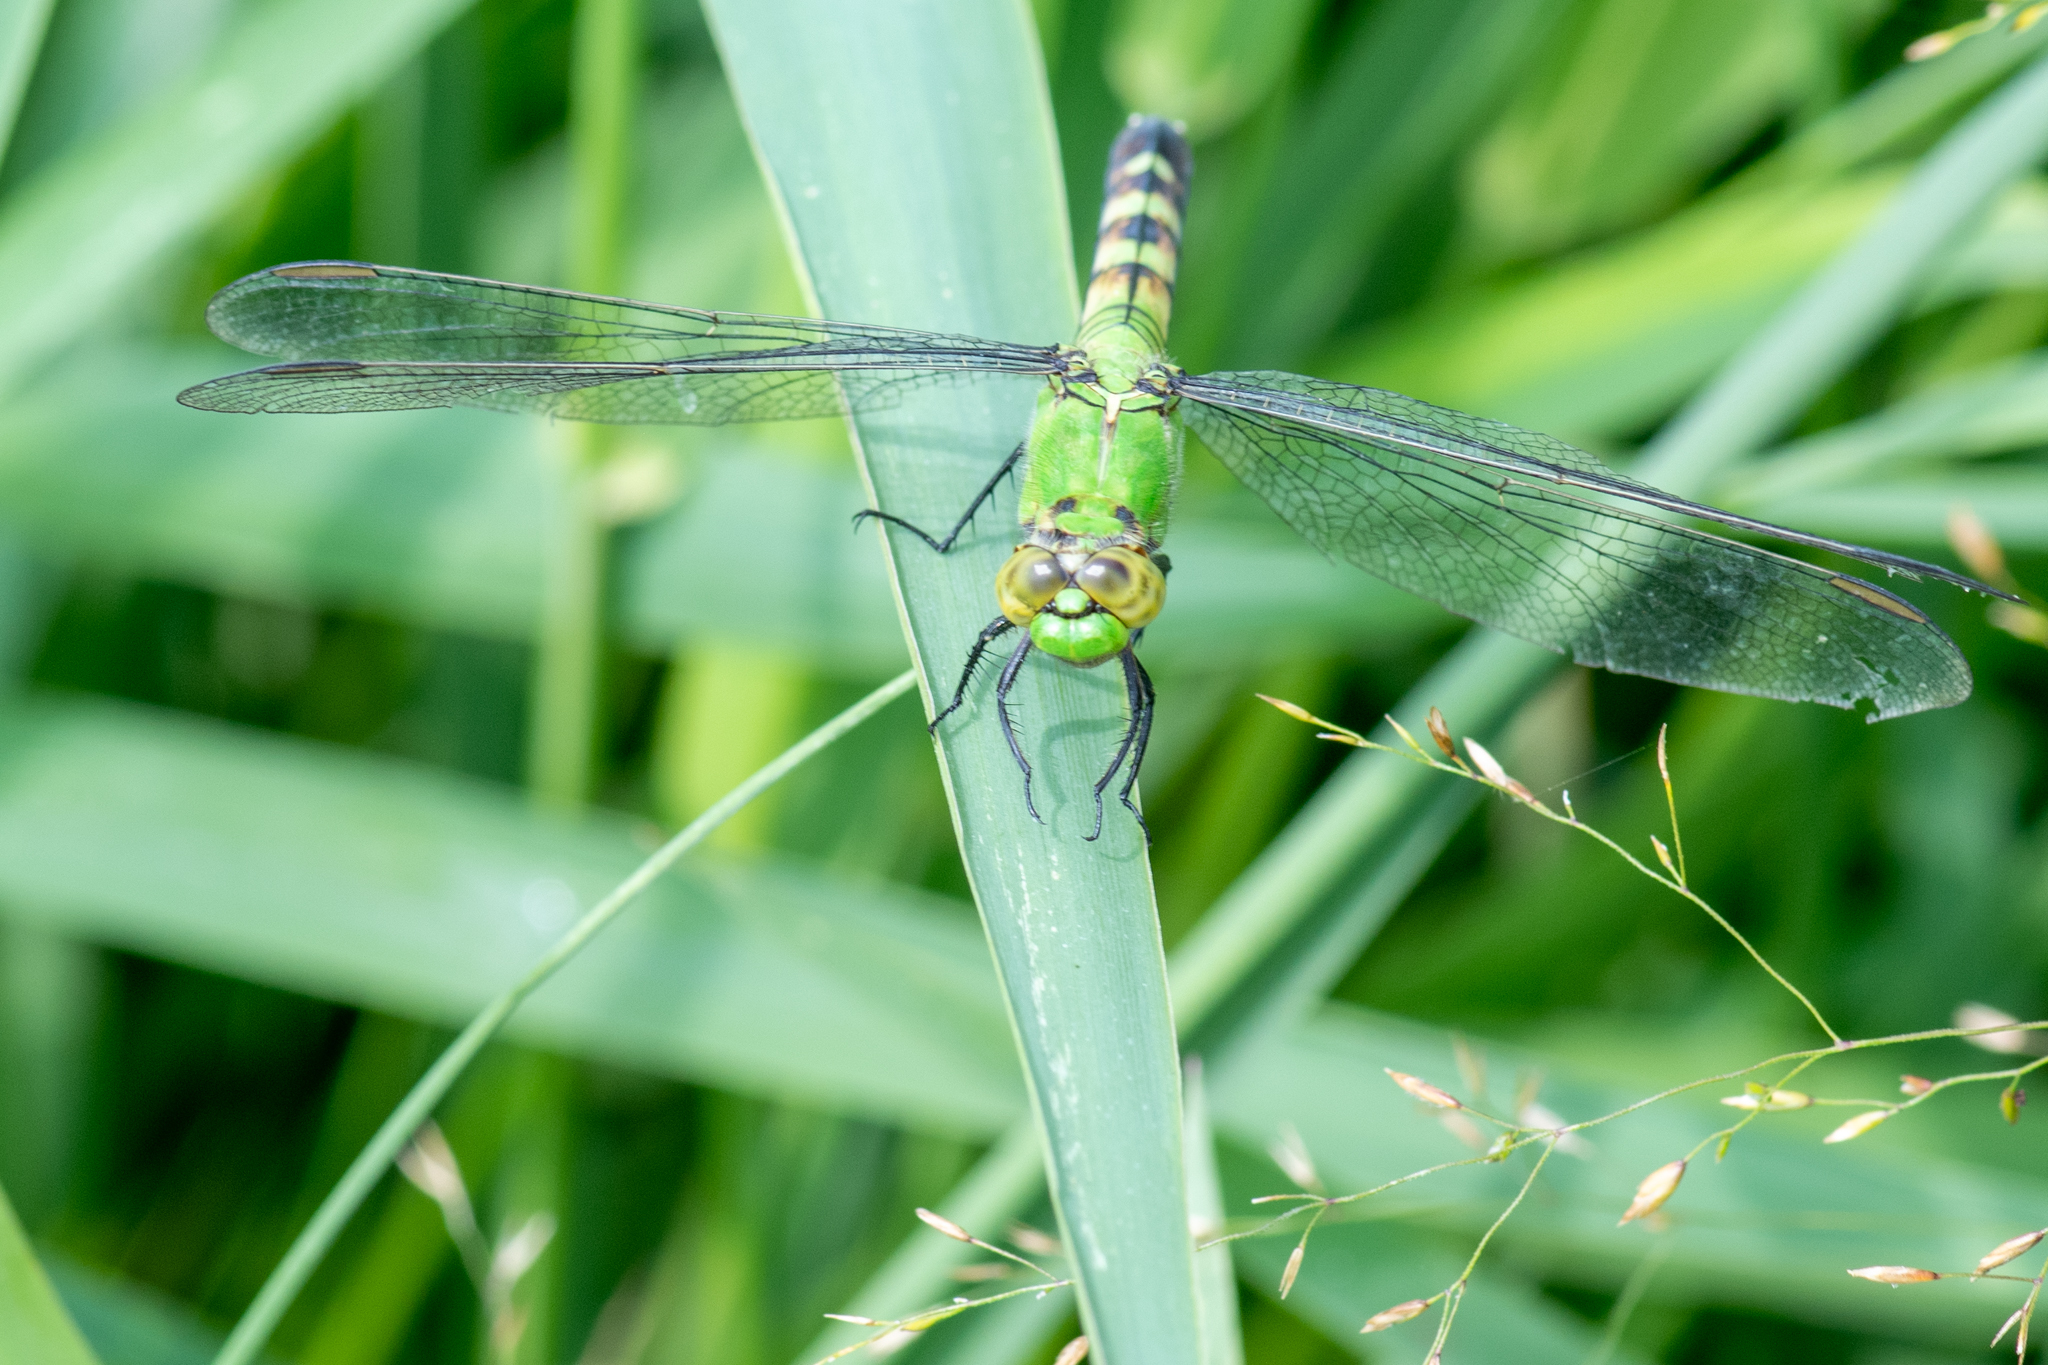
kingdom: Animalia
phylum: Arthropoda
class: Insecta
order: Odonata
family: Libellulidae
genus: Erythemis
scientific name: Erythemis simplicicollis
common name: Eastern pondhawk
